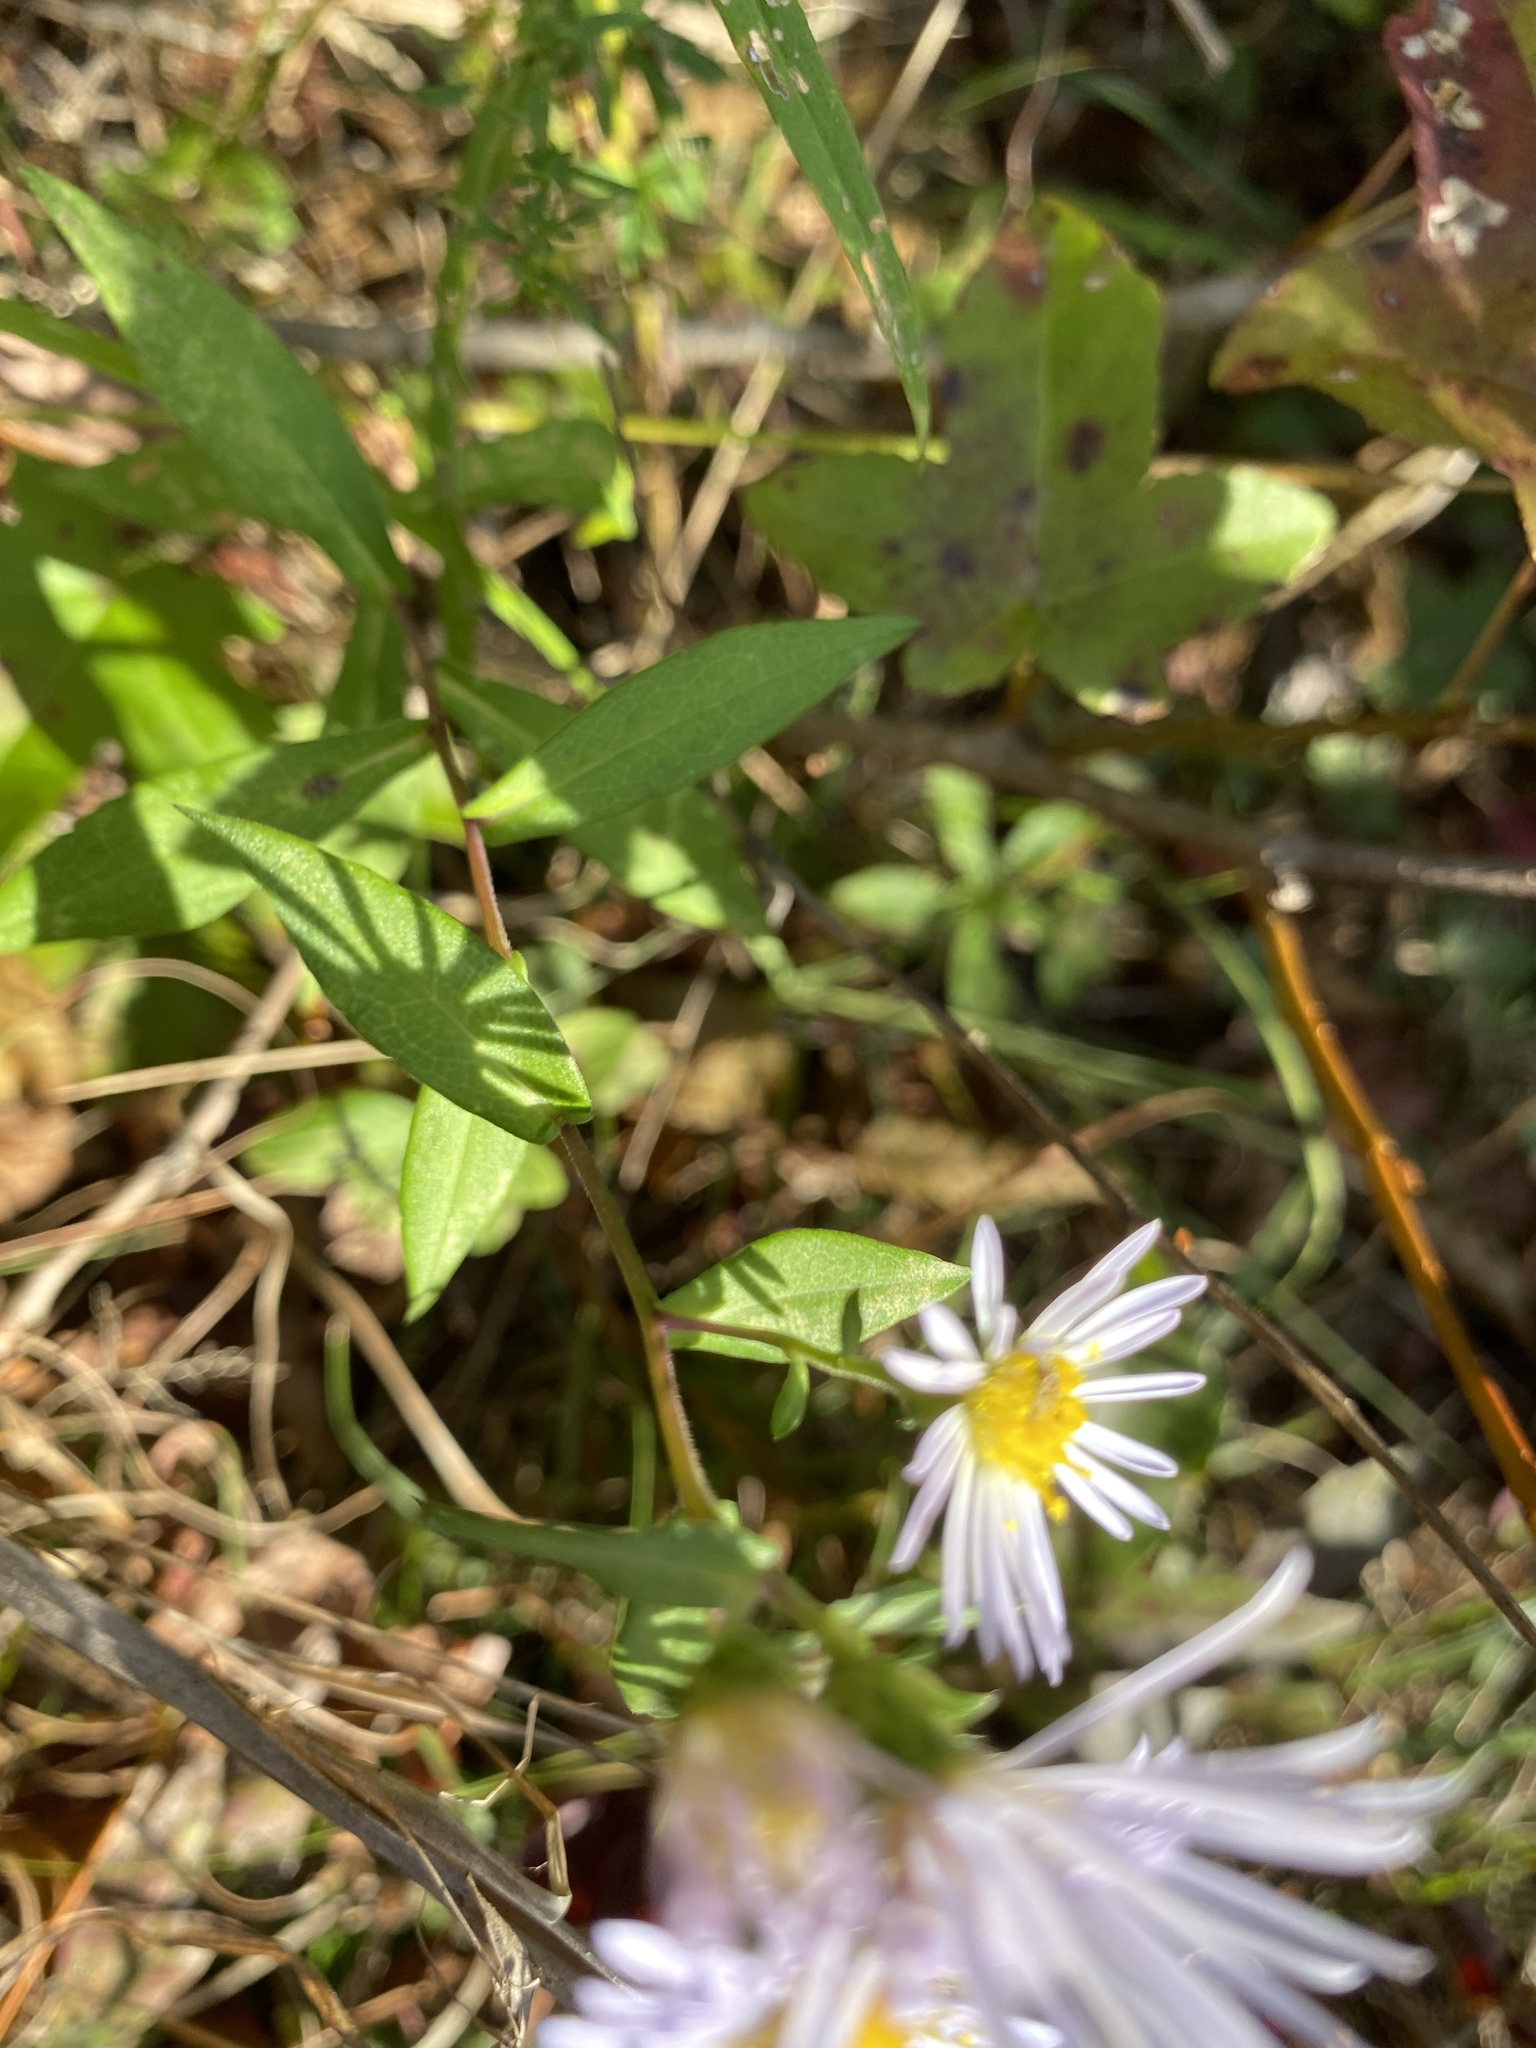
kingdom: Plantae
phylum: Tracheophyta
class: Magnoliopsida
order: Asterales
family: Asteraceae
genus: Symphyotrichum
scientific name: Symphyotrichum novi-belgii
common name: Michaelmas daisy
